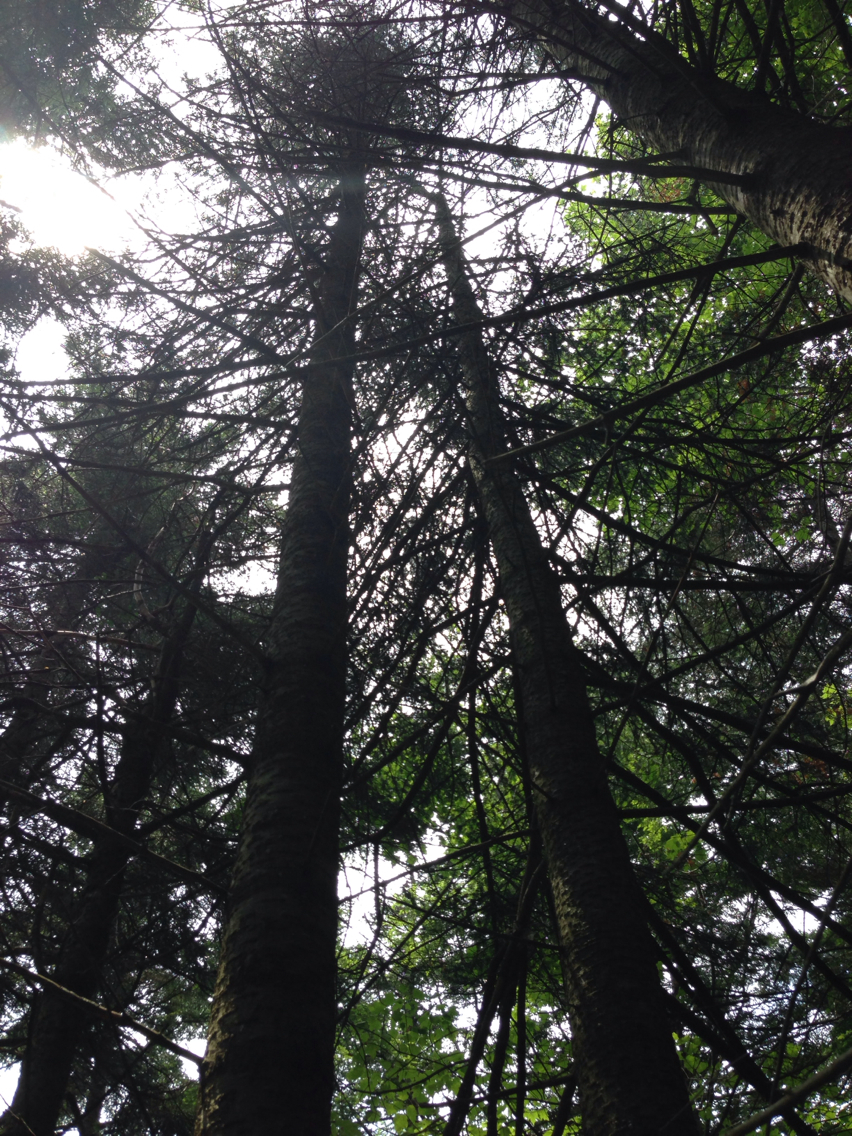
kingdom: Plantae
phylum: Tracheophyta
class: Pinopsida
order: Pinales
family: Pinaceae
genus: Abies
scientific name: Abies balsamea
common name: Balsam fir
